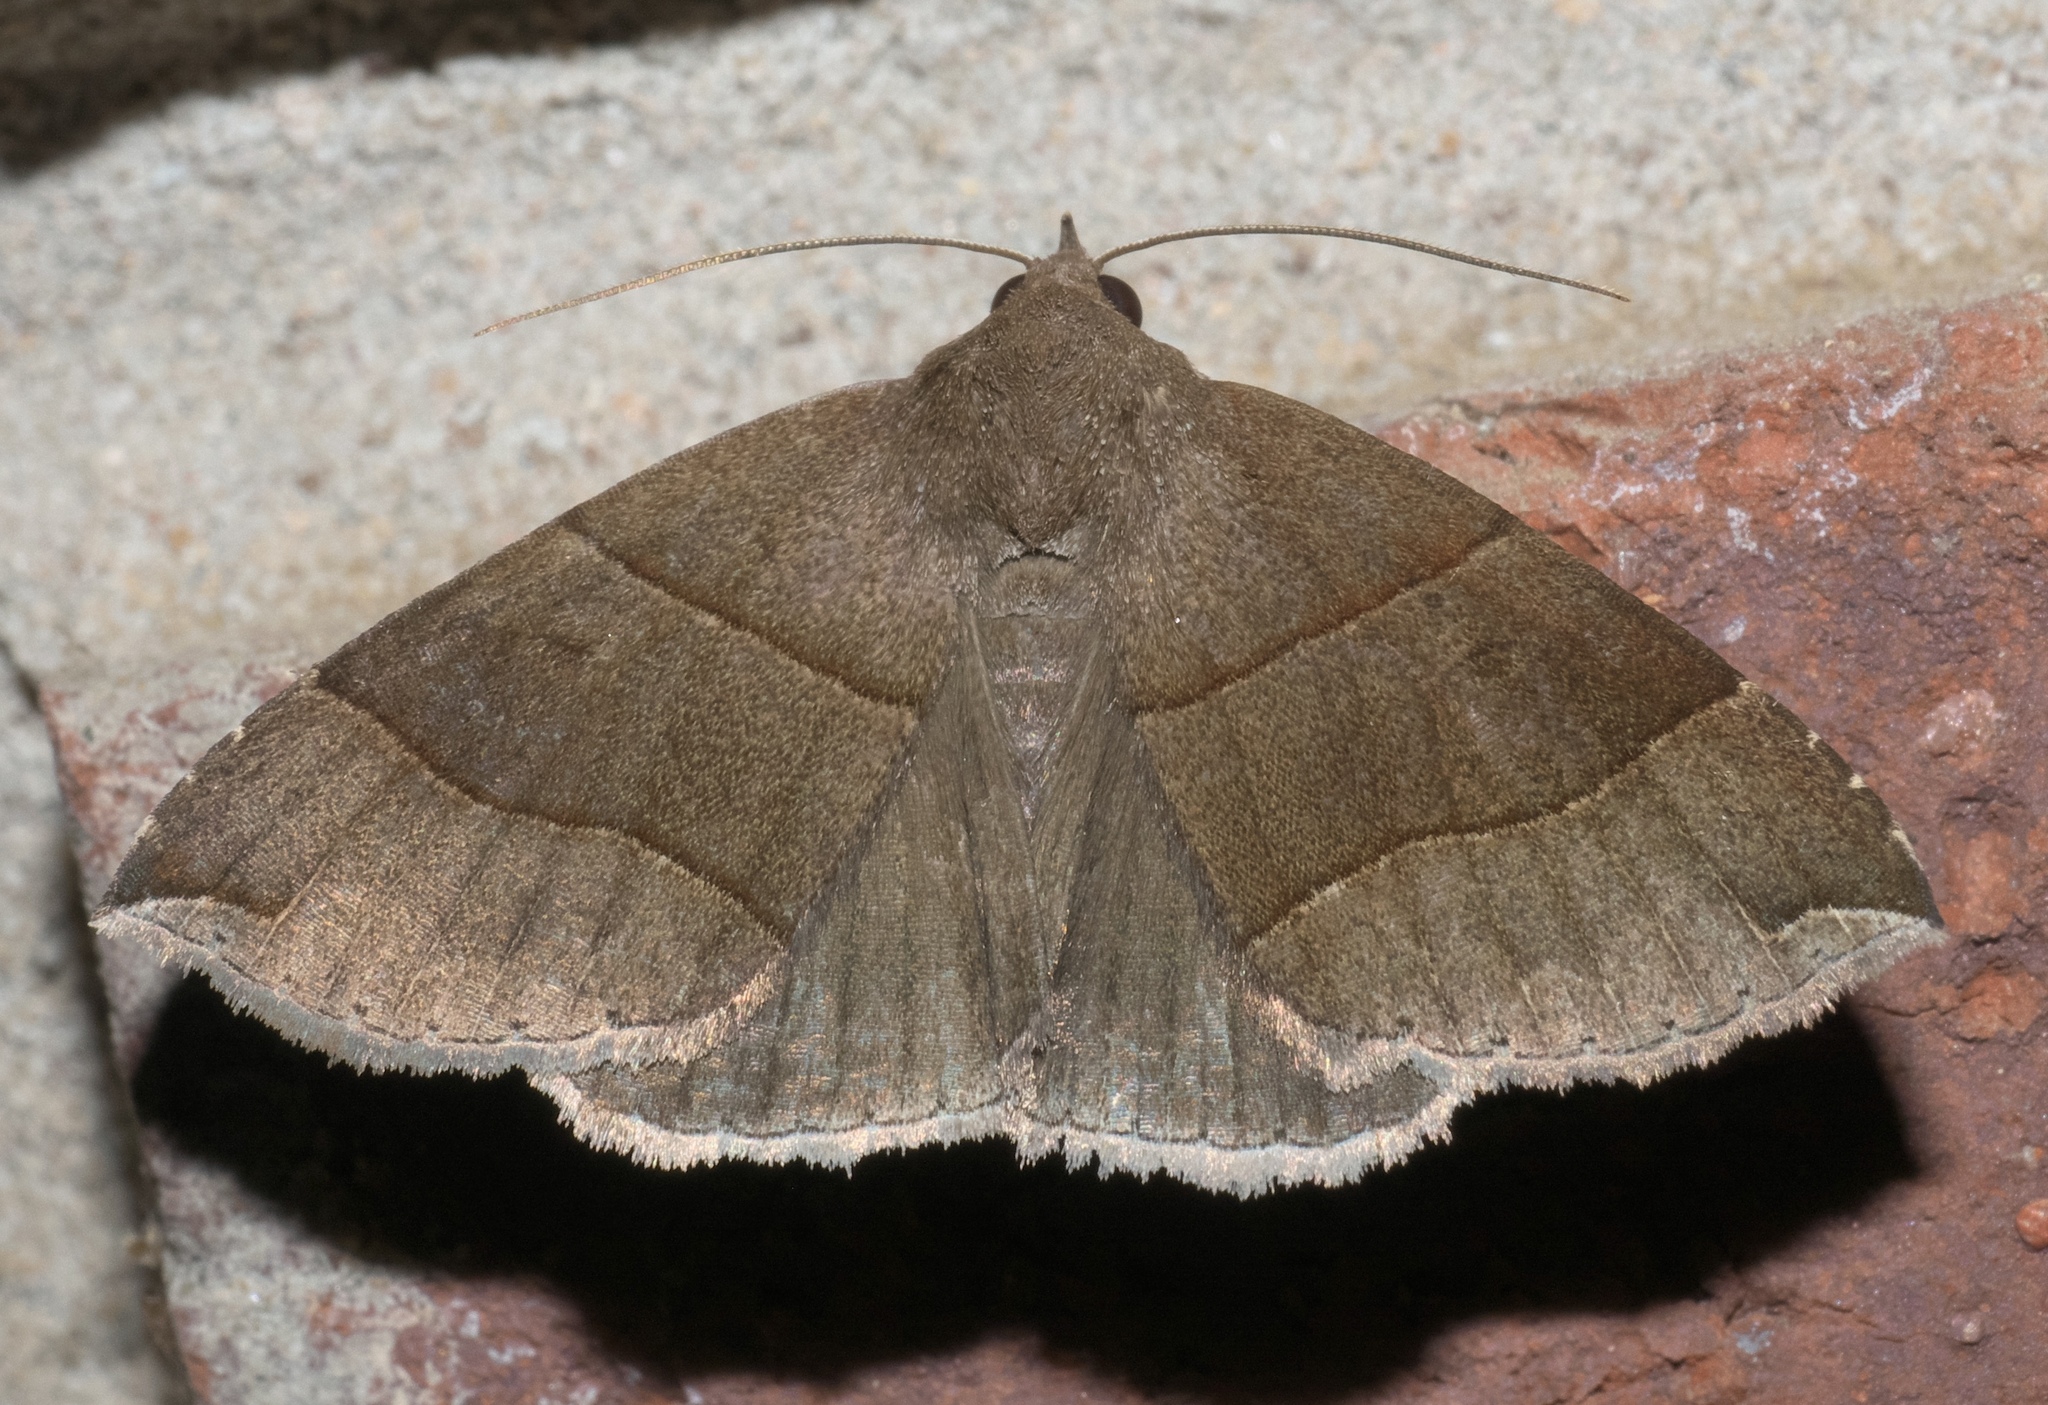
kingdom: Animalia
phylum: Arthropoda
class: Insecta
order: Lepidoptera
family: Erebidae
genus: Parallelia
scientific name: Parallelia bistriaris
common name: Maple looper moth
